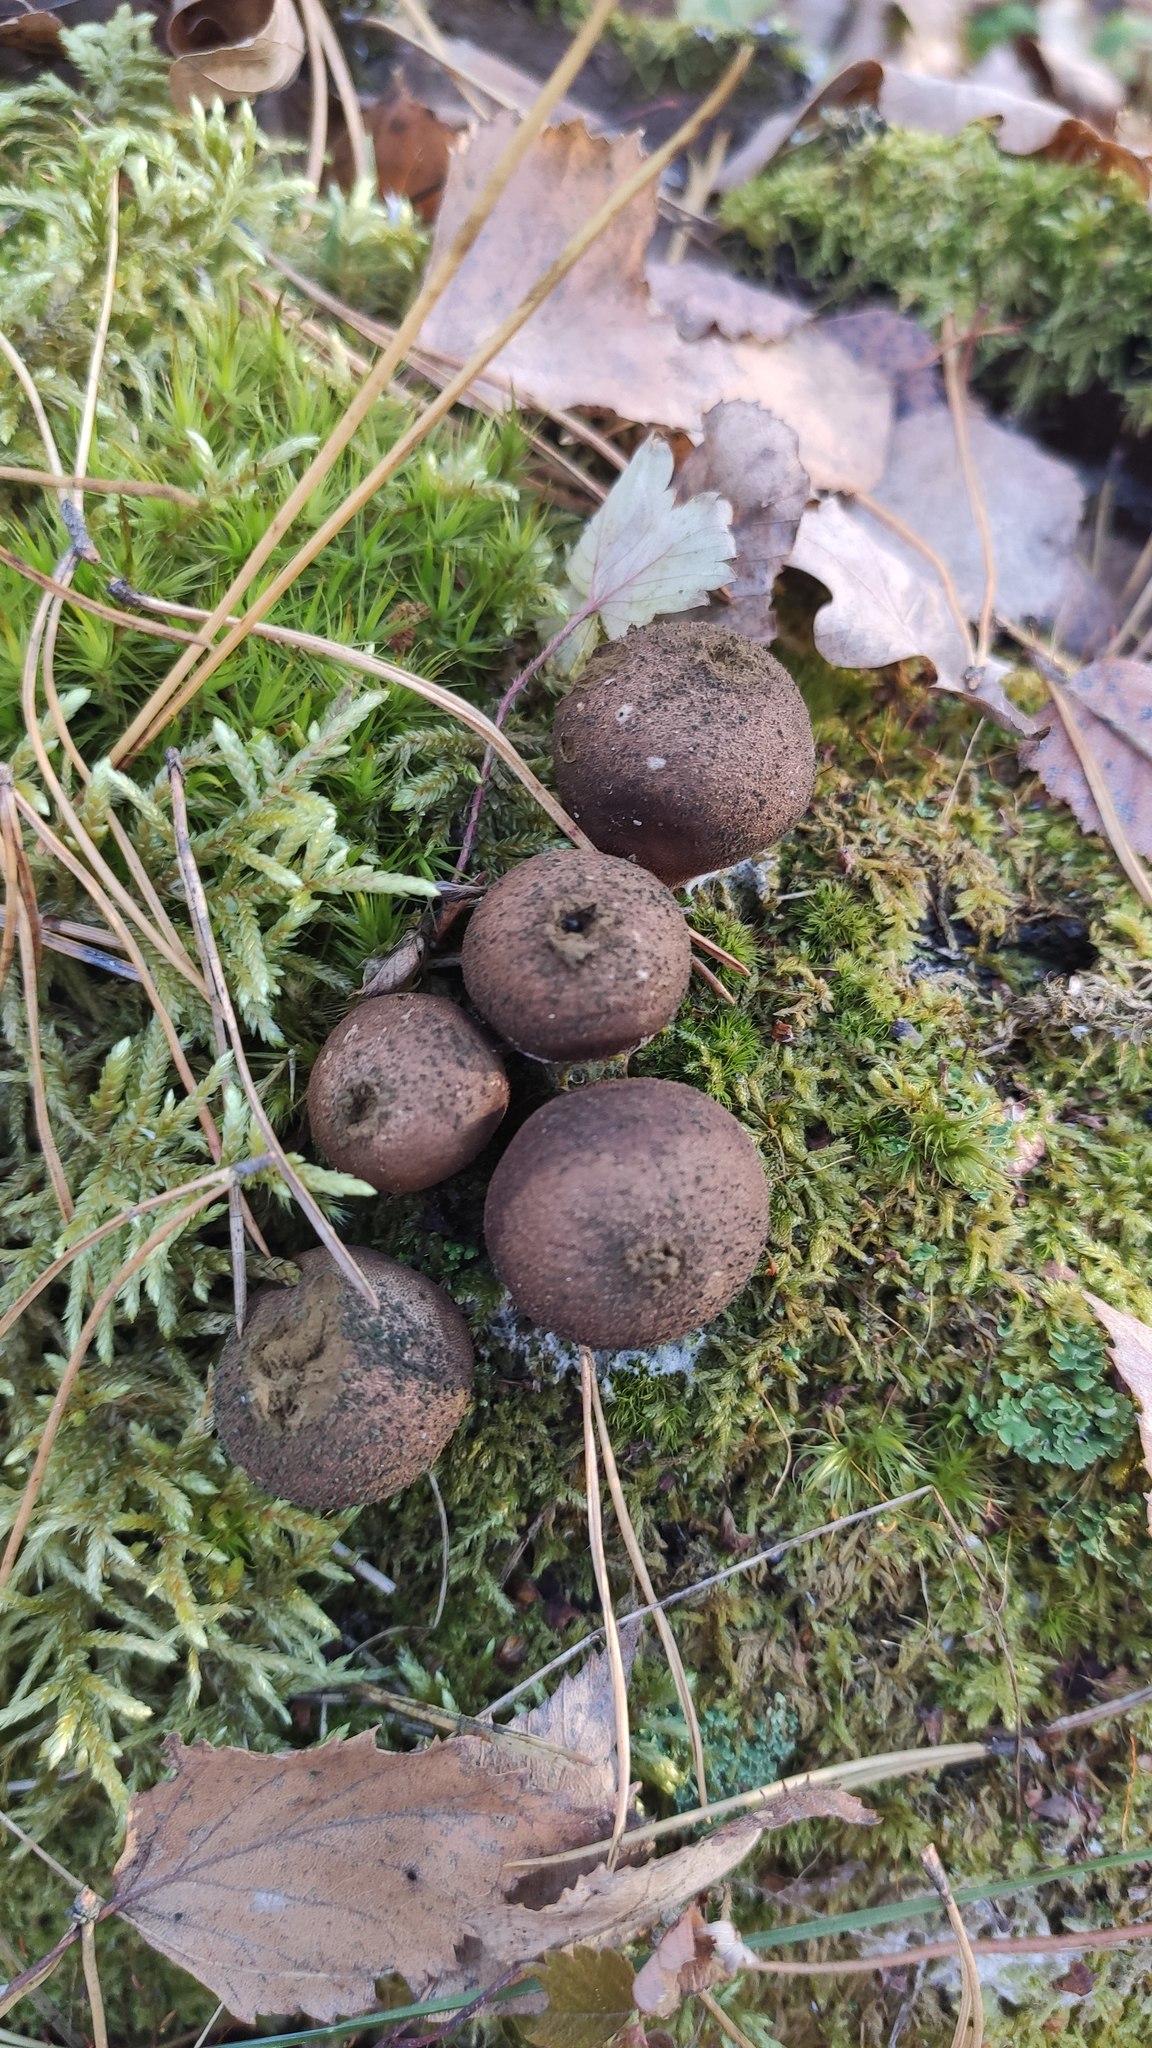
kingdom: Fungi
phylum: Basidiomycota
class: Agaricomycetes
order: Agaricales
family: Lycoperdaceae
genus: Apioperdon
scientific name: Apioperdon pyriforme
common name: Pear-shaped puffball
